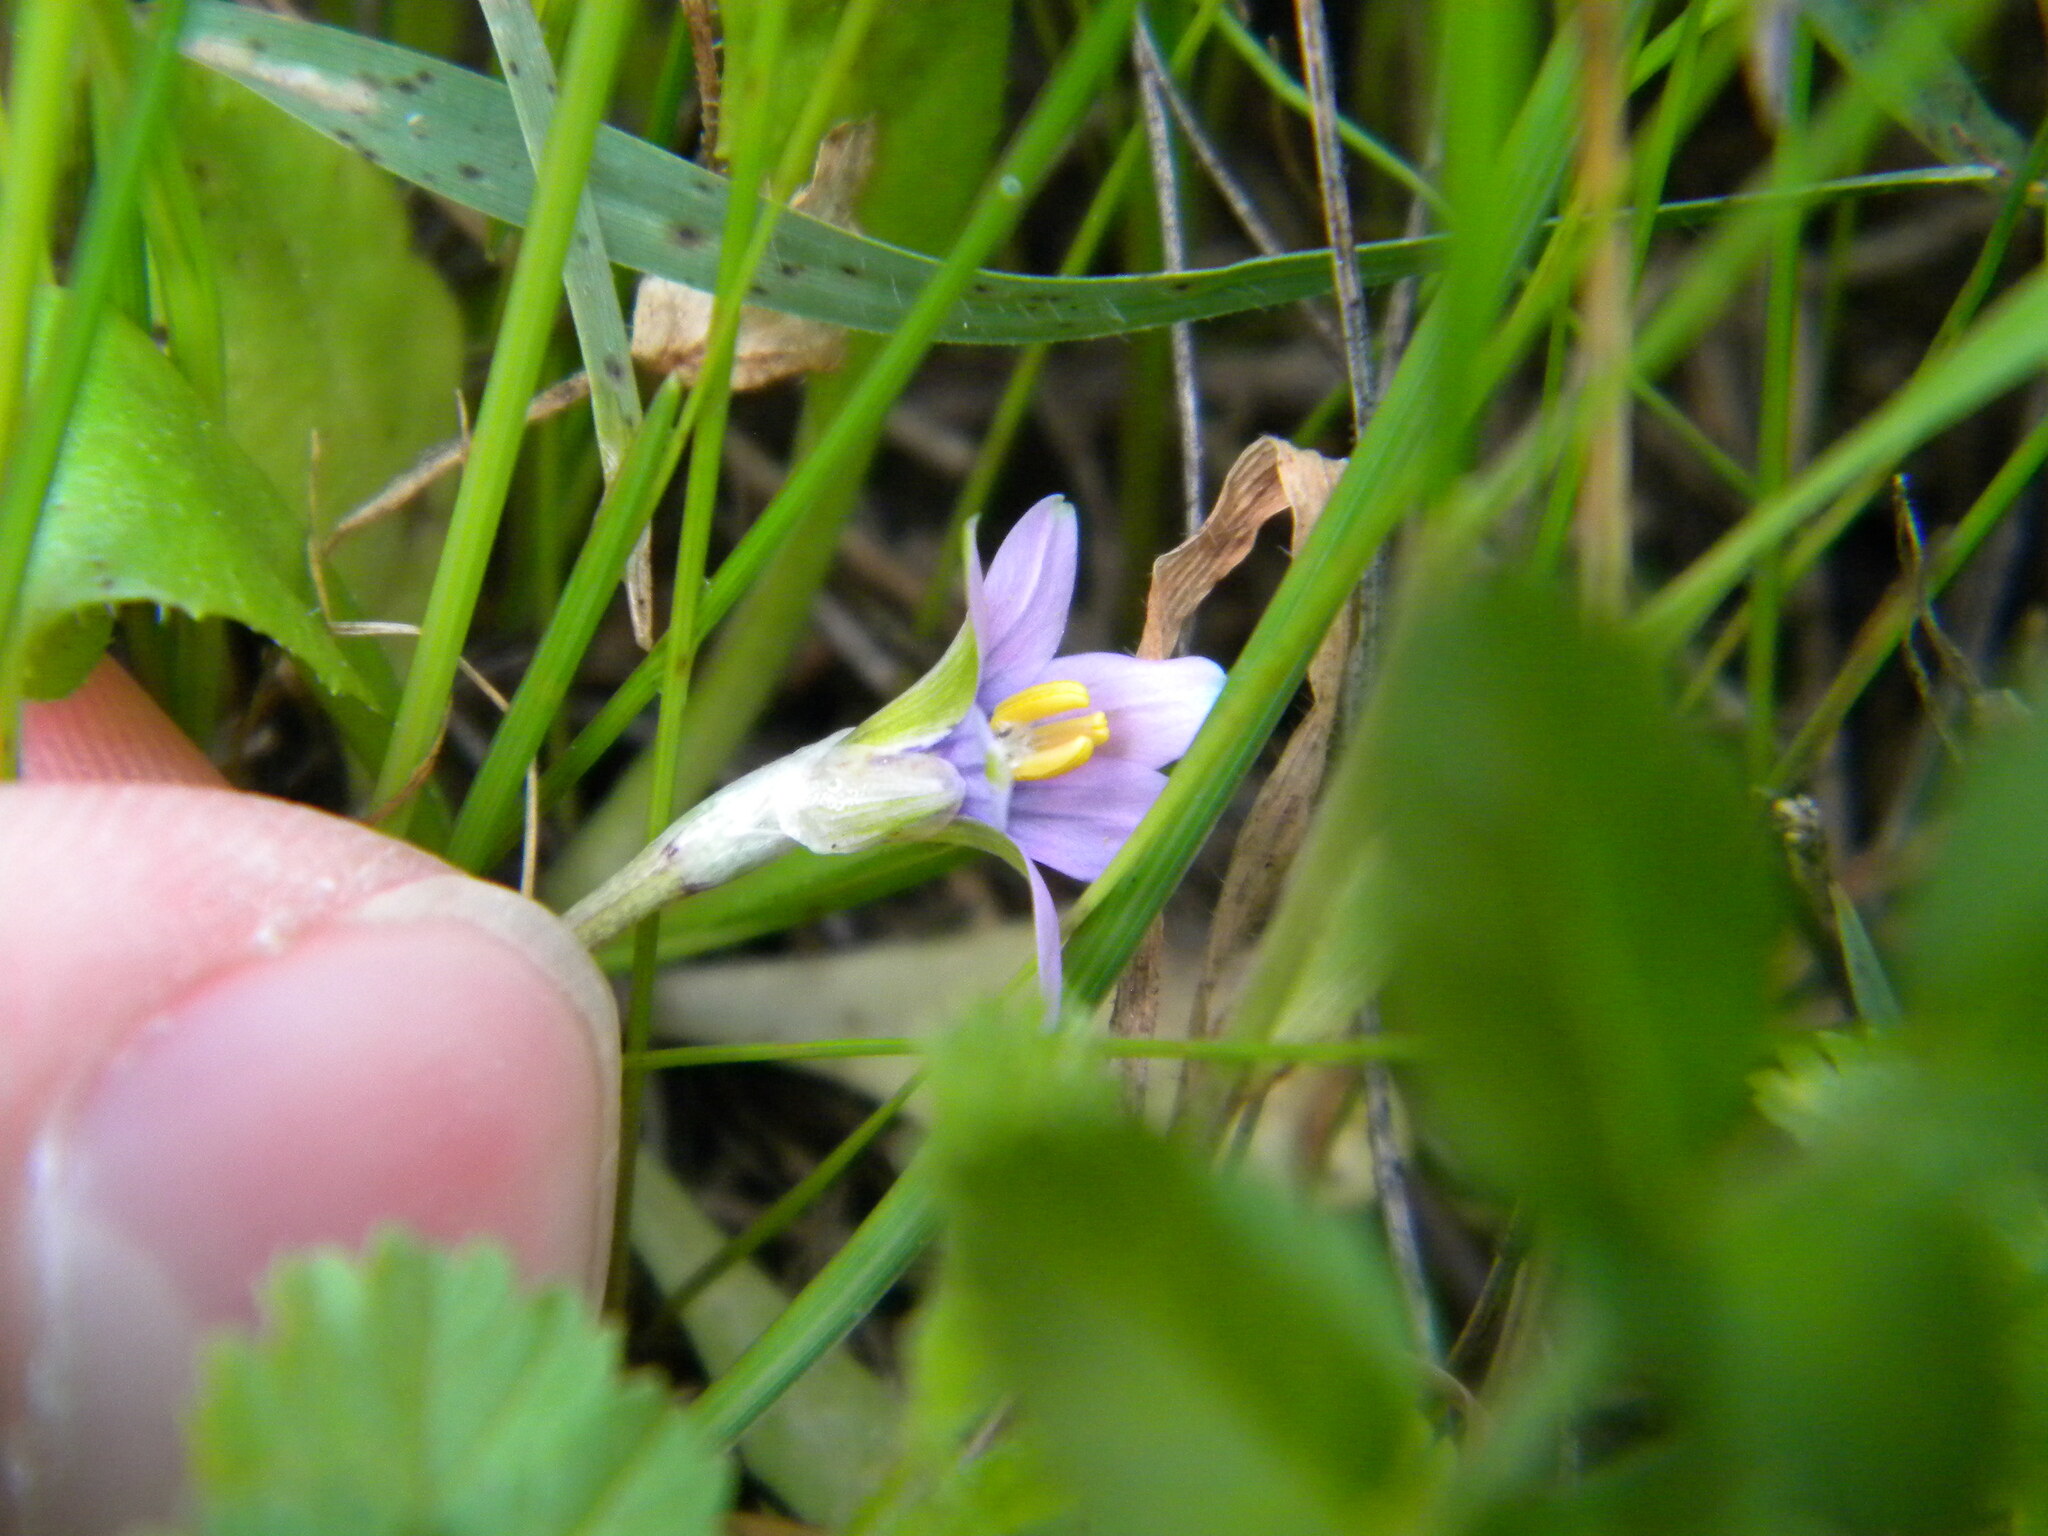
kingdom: Plantae
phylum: Tracheophyta
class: Liliopsida
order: Asparagales
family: Iridaceae
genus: Romulea
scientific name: Romulea minutiflora
